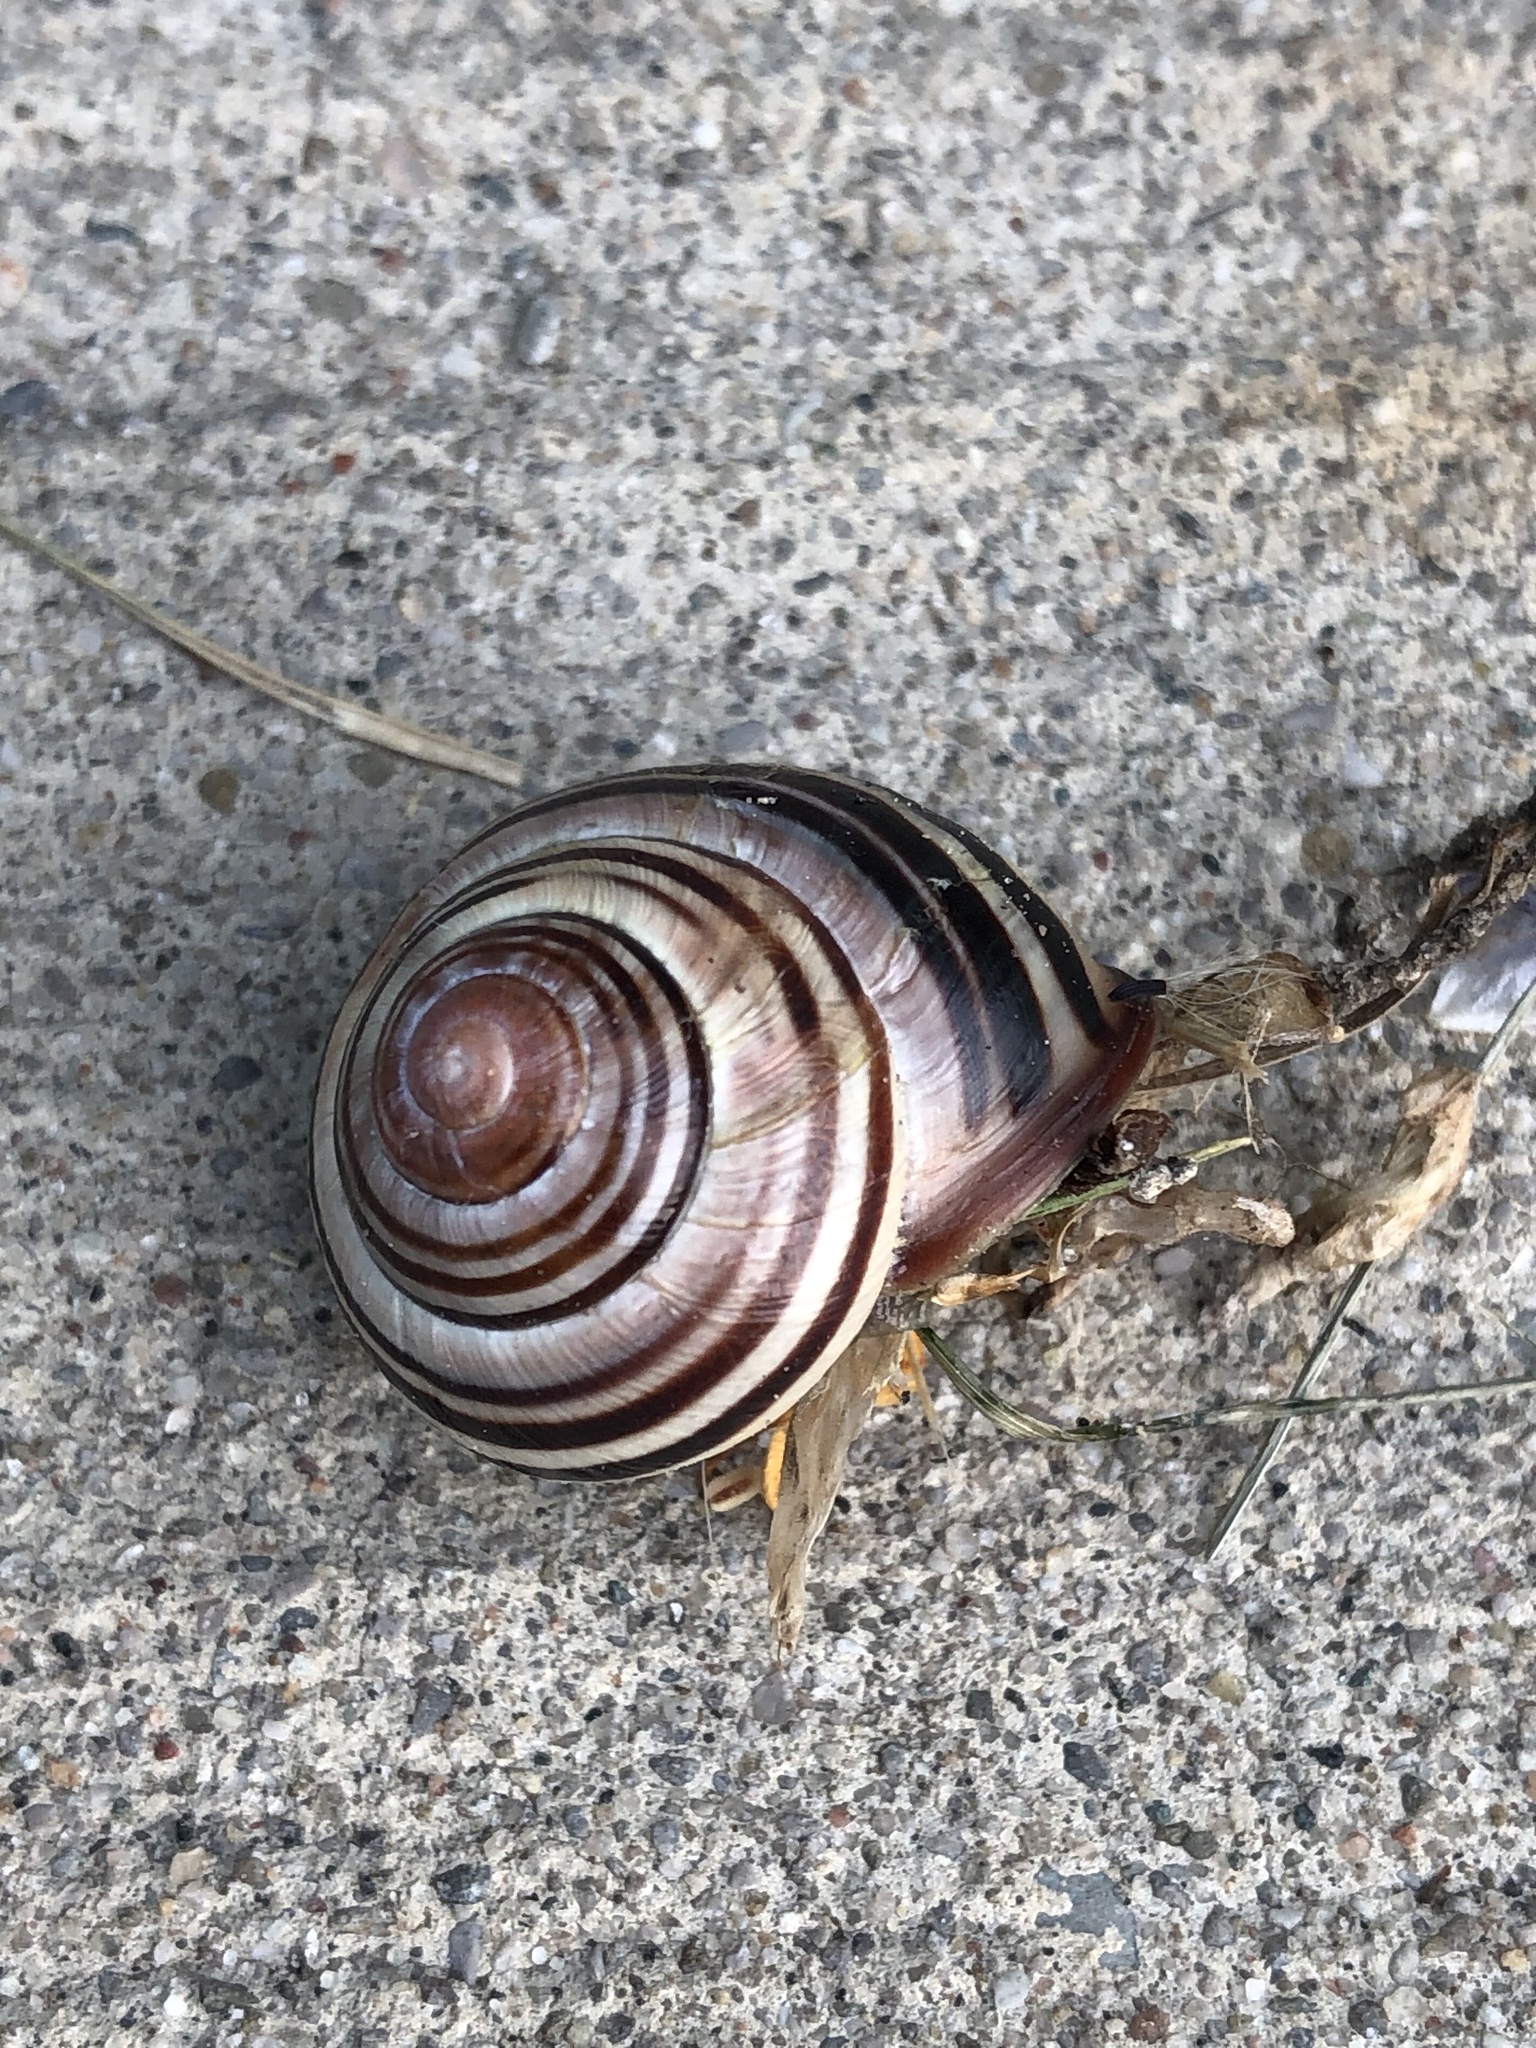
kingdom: Animalia
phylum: Mollusca
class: Gastropoda
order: Stylommatophora
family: Helicidae
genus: Cepaea
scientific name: Cepaea nemoralis
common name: Grovesnail
